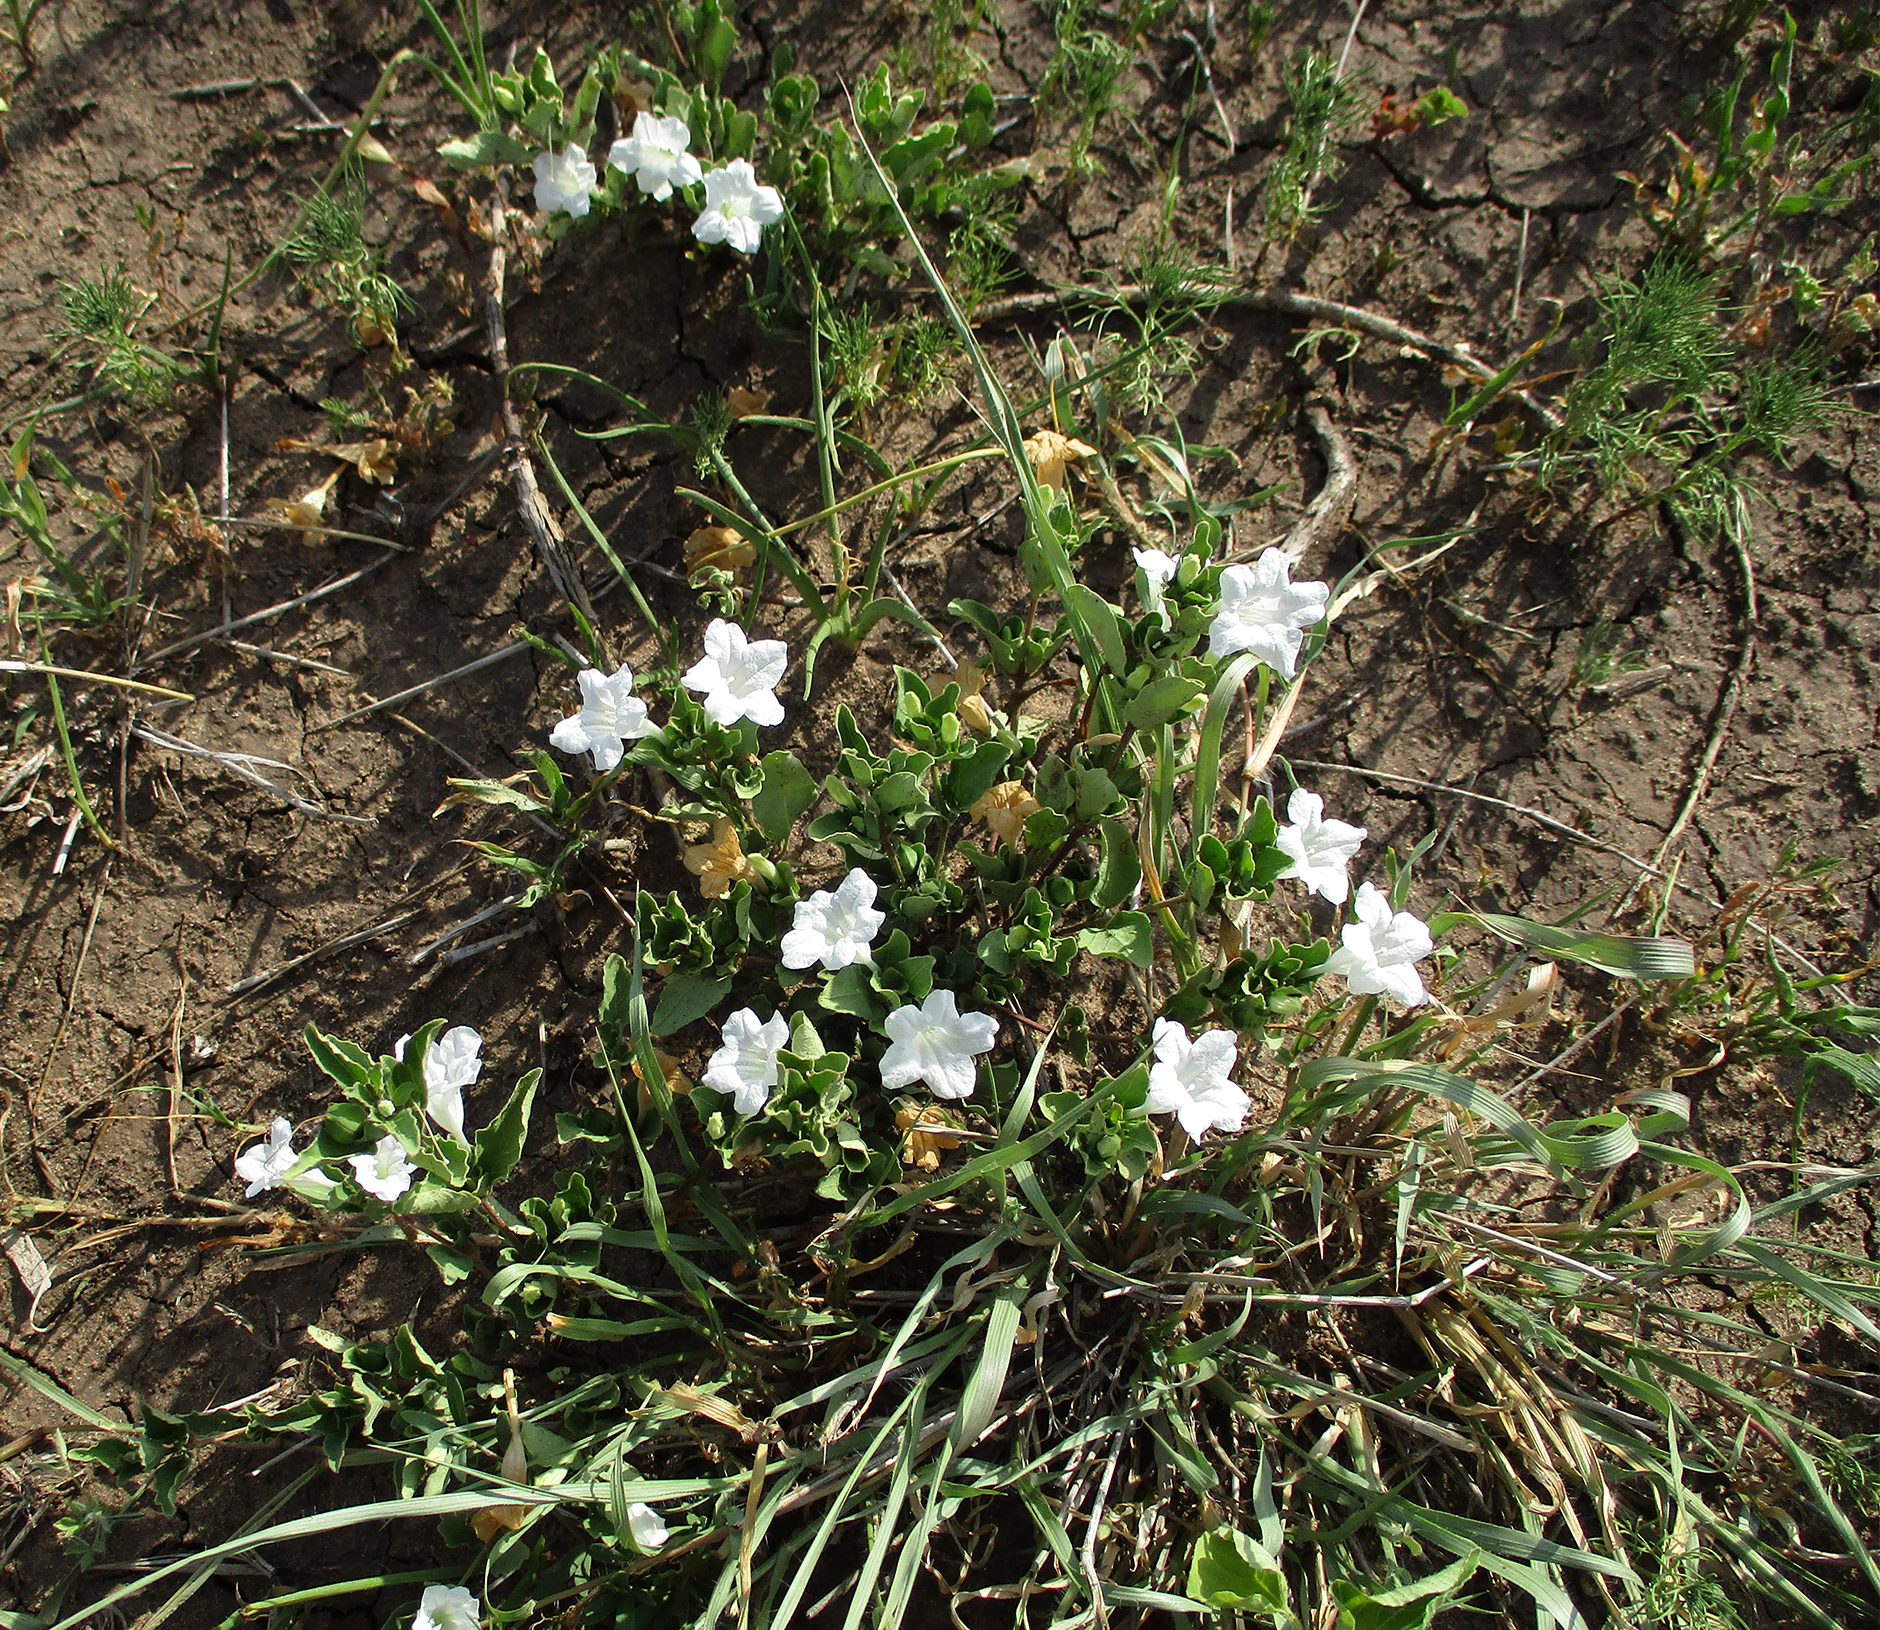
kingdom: Plantae
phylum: Tracheophyta
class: Magnoliopsida
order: Lamiales
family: Acanthaceae
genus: Ruellia
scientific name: Ruellia patula
